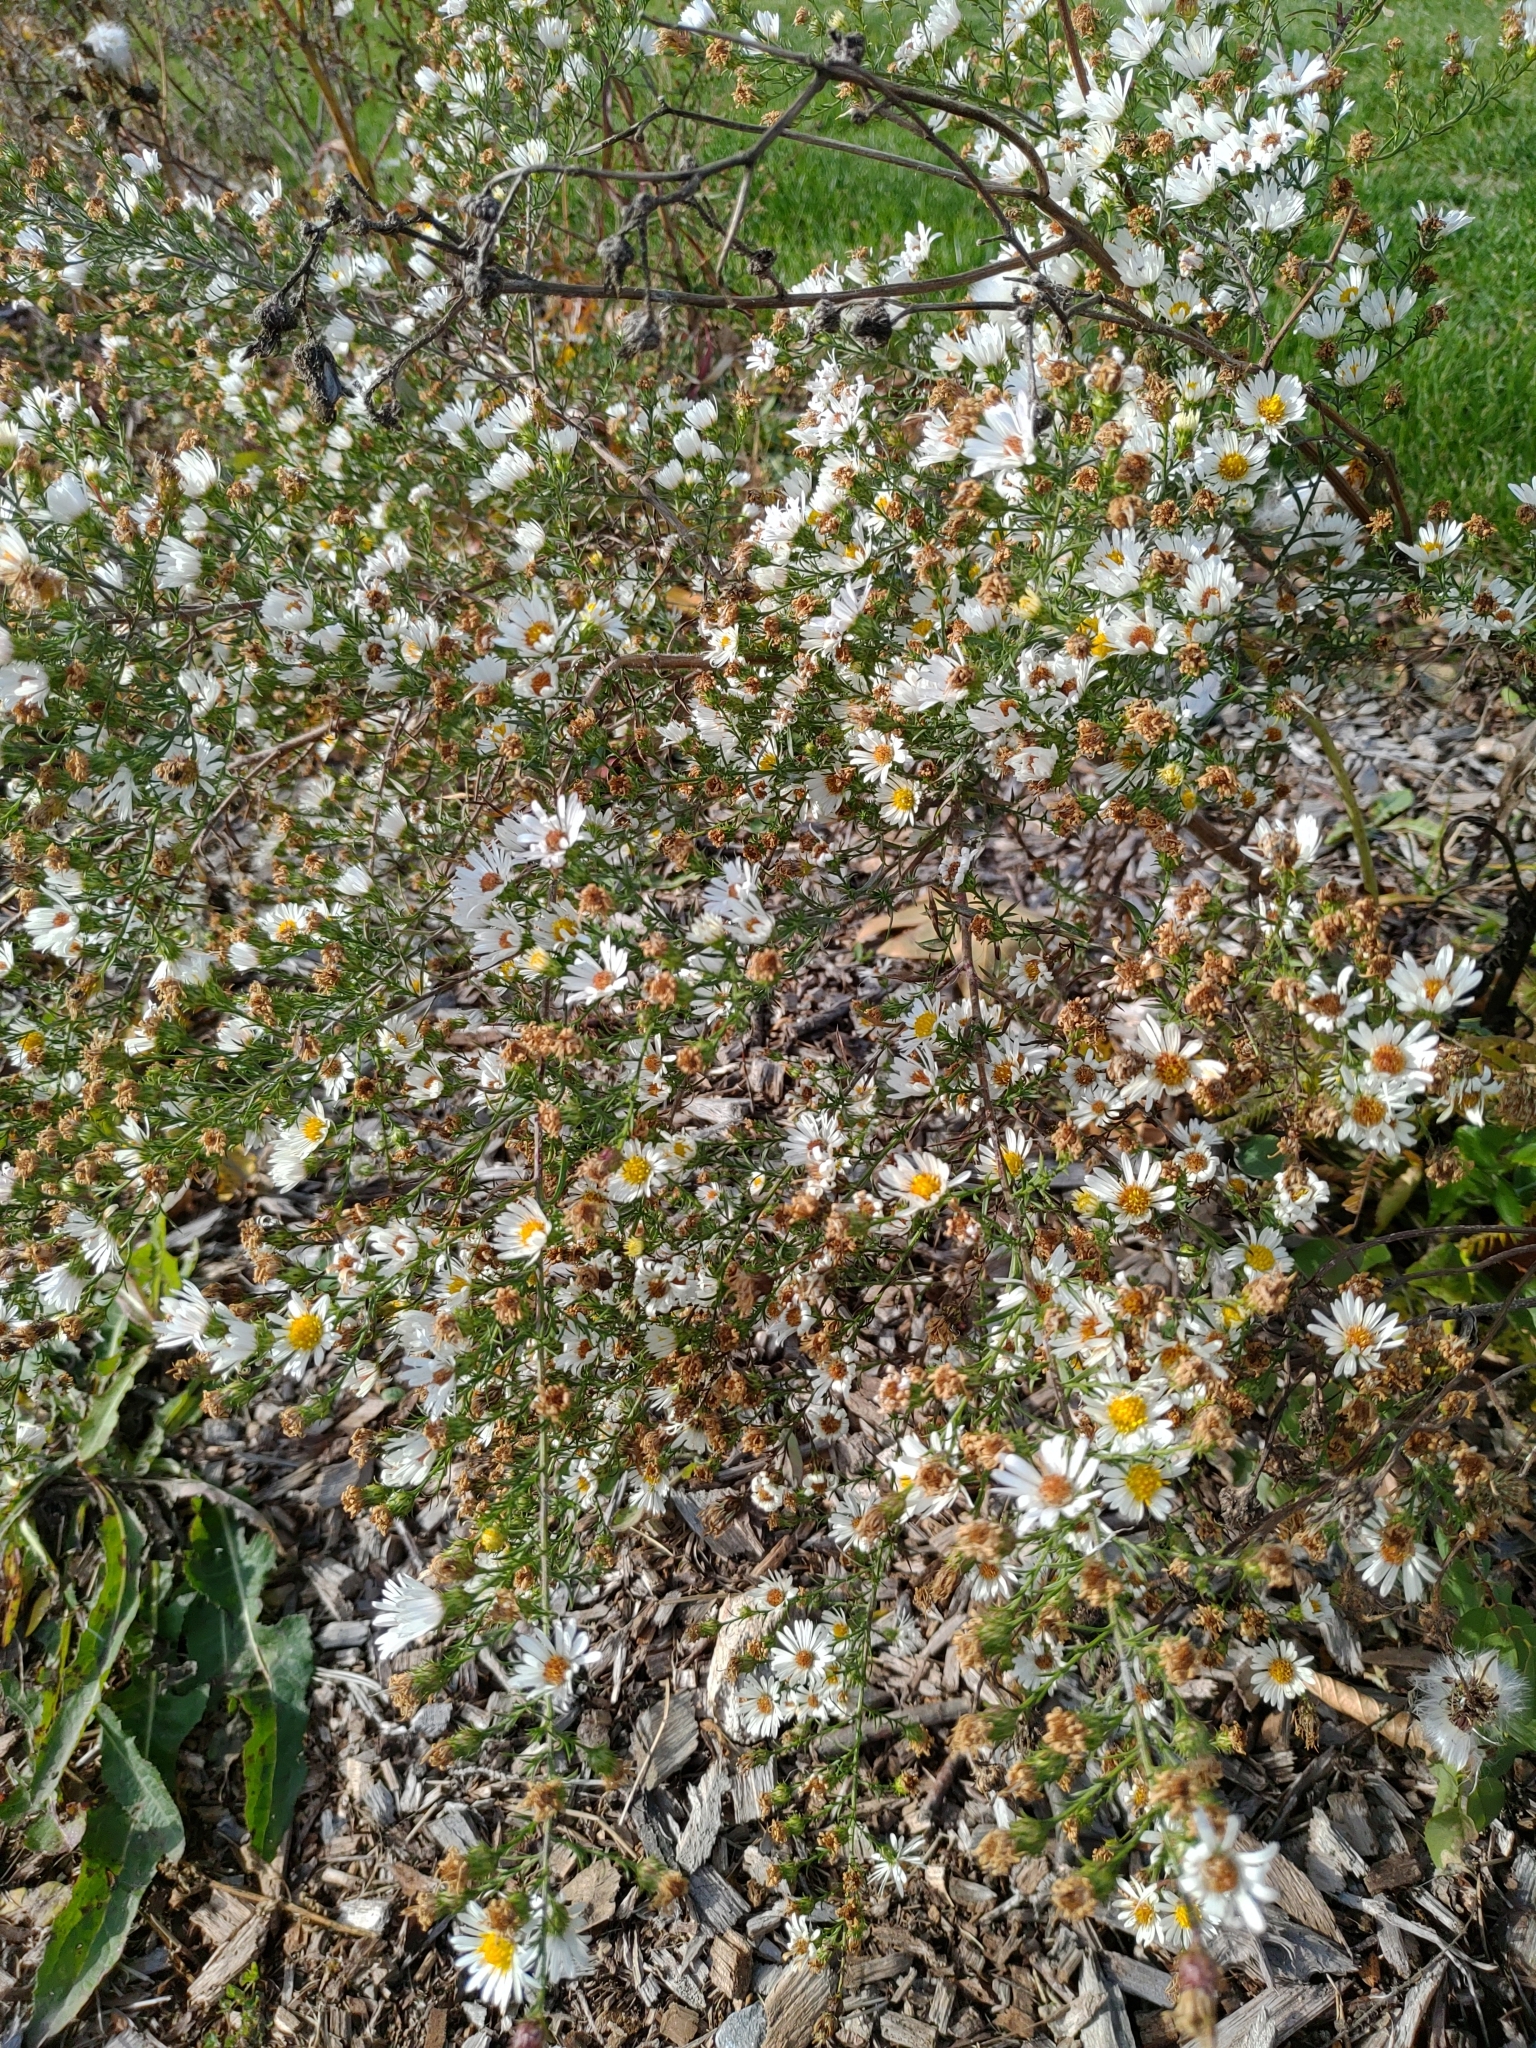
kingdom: Plantae
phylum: Tracheophyta
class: Magnoliopsida
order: Asterales
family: Asteraceae
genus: Symphyotrichum
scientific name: Symphyotrichum pilosum
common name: Awl aster
